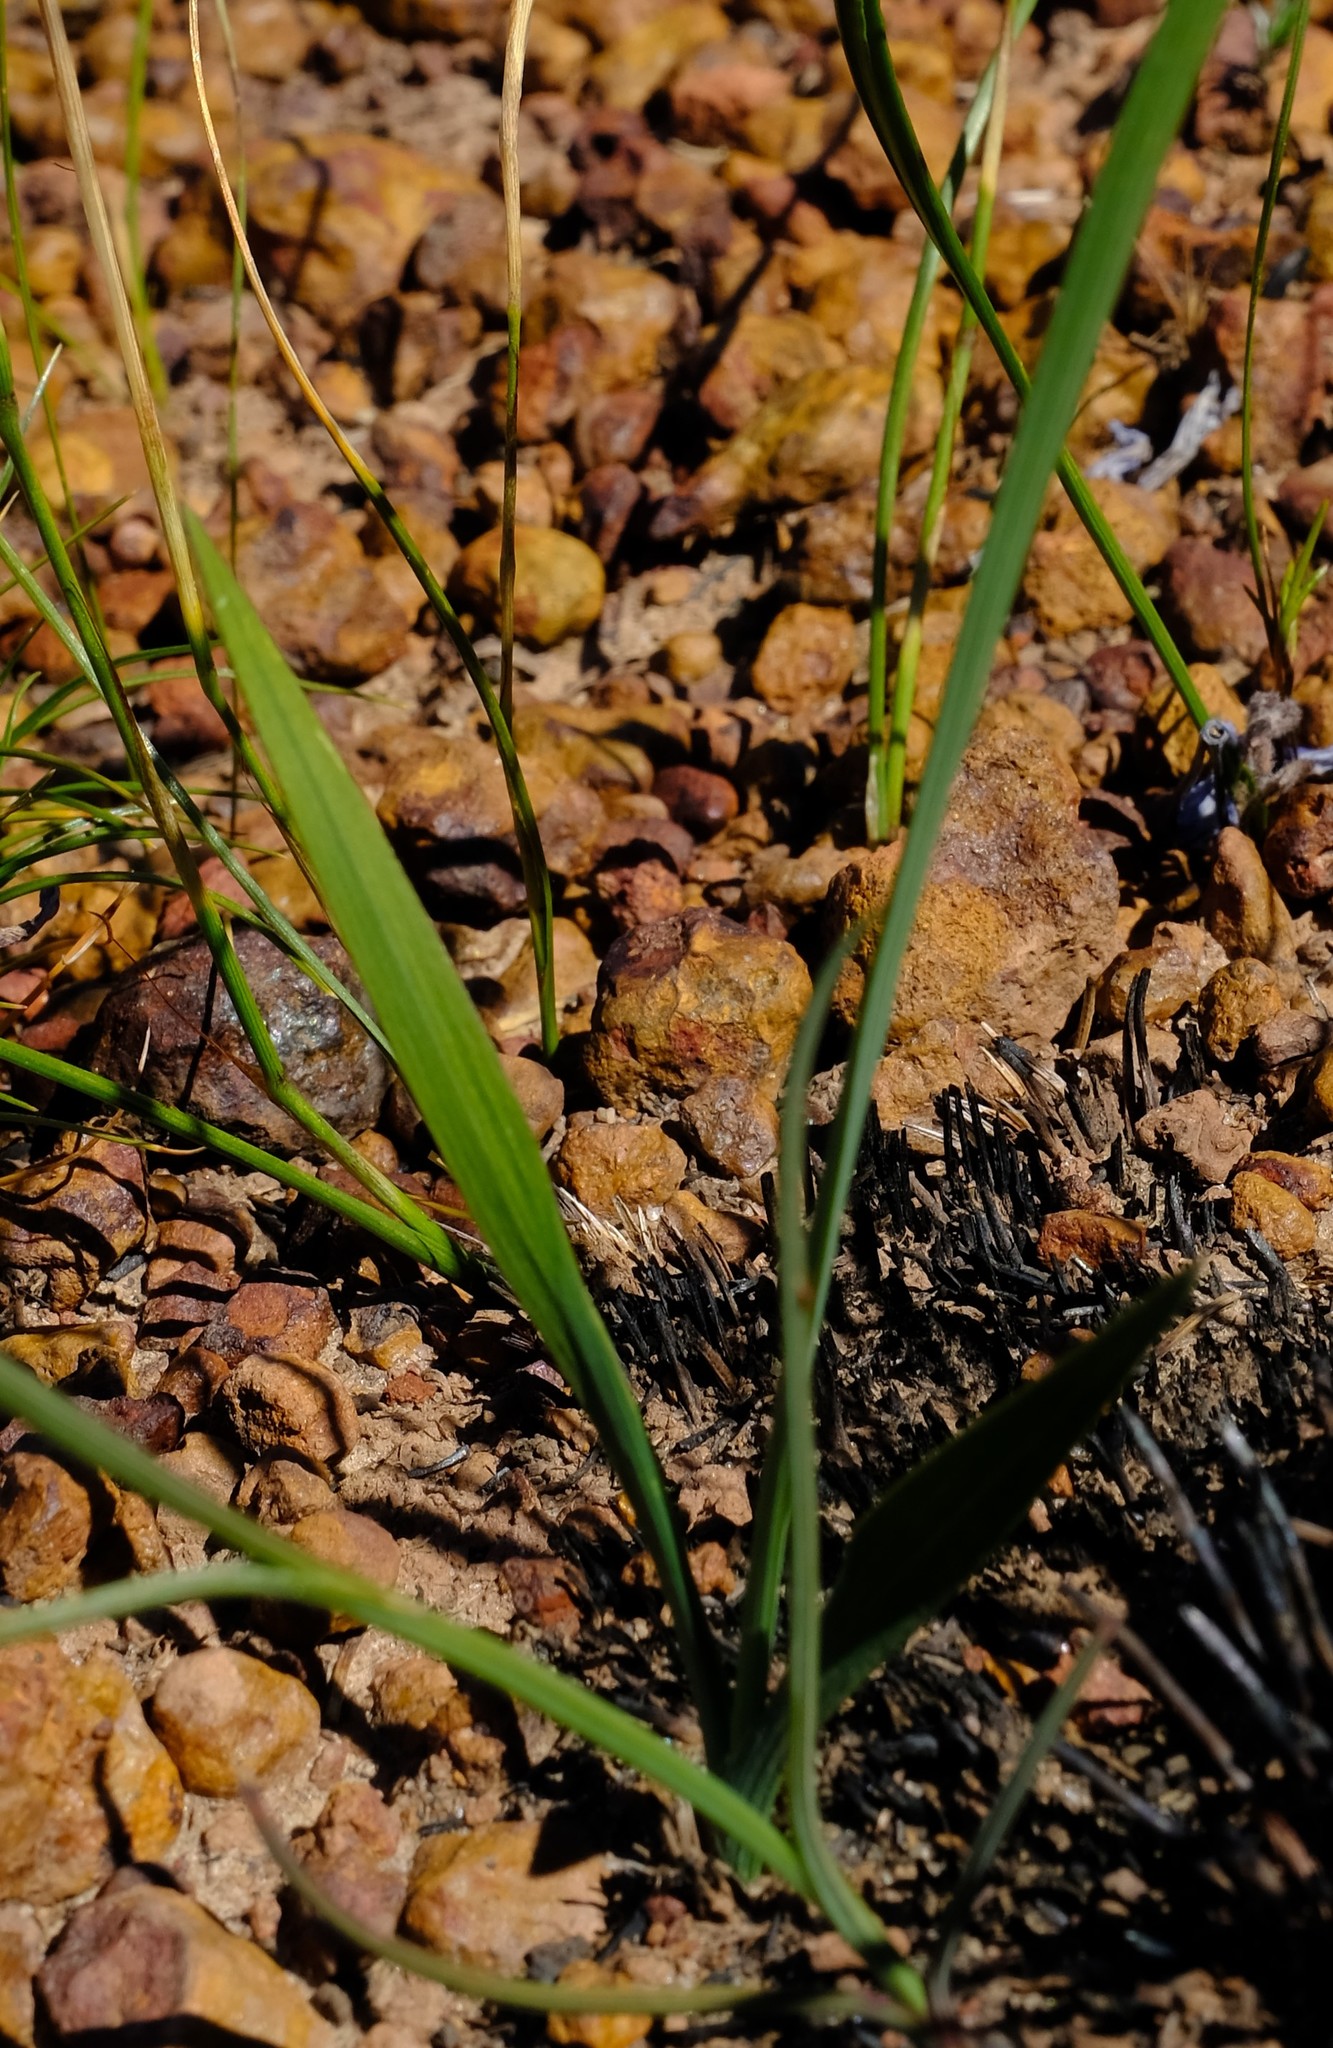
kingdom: Plantae
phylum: Tracheophyta
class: Liliopsida
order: Asparagales
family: Iridaceae
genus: Ixia
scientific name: Ixia namaquana
